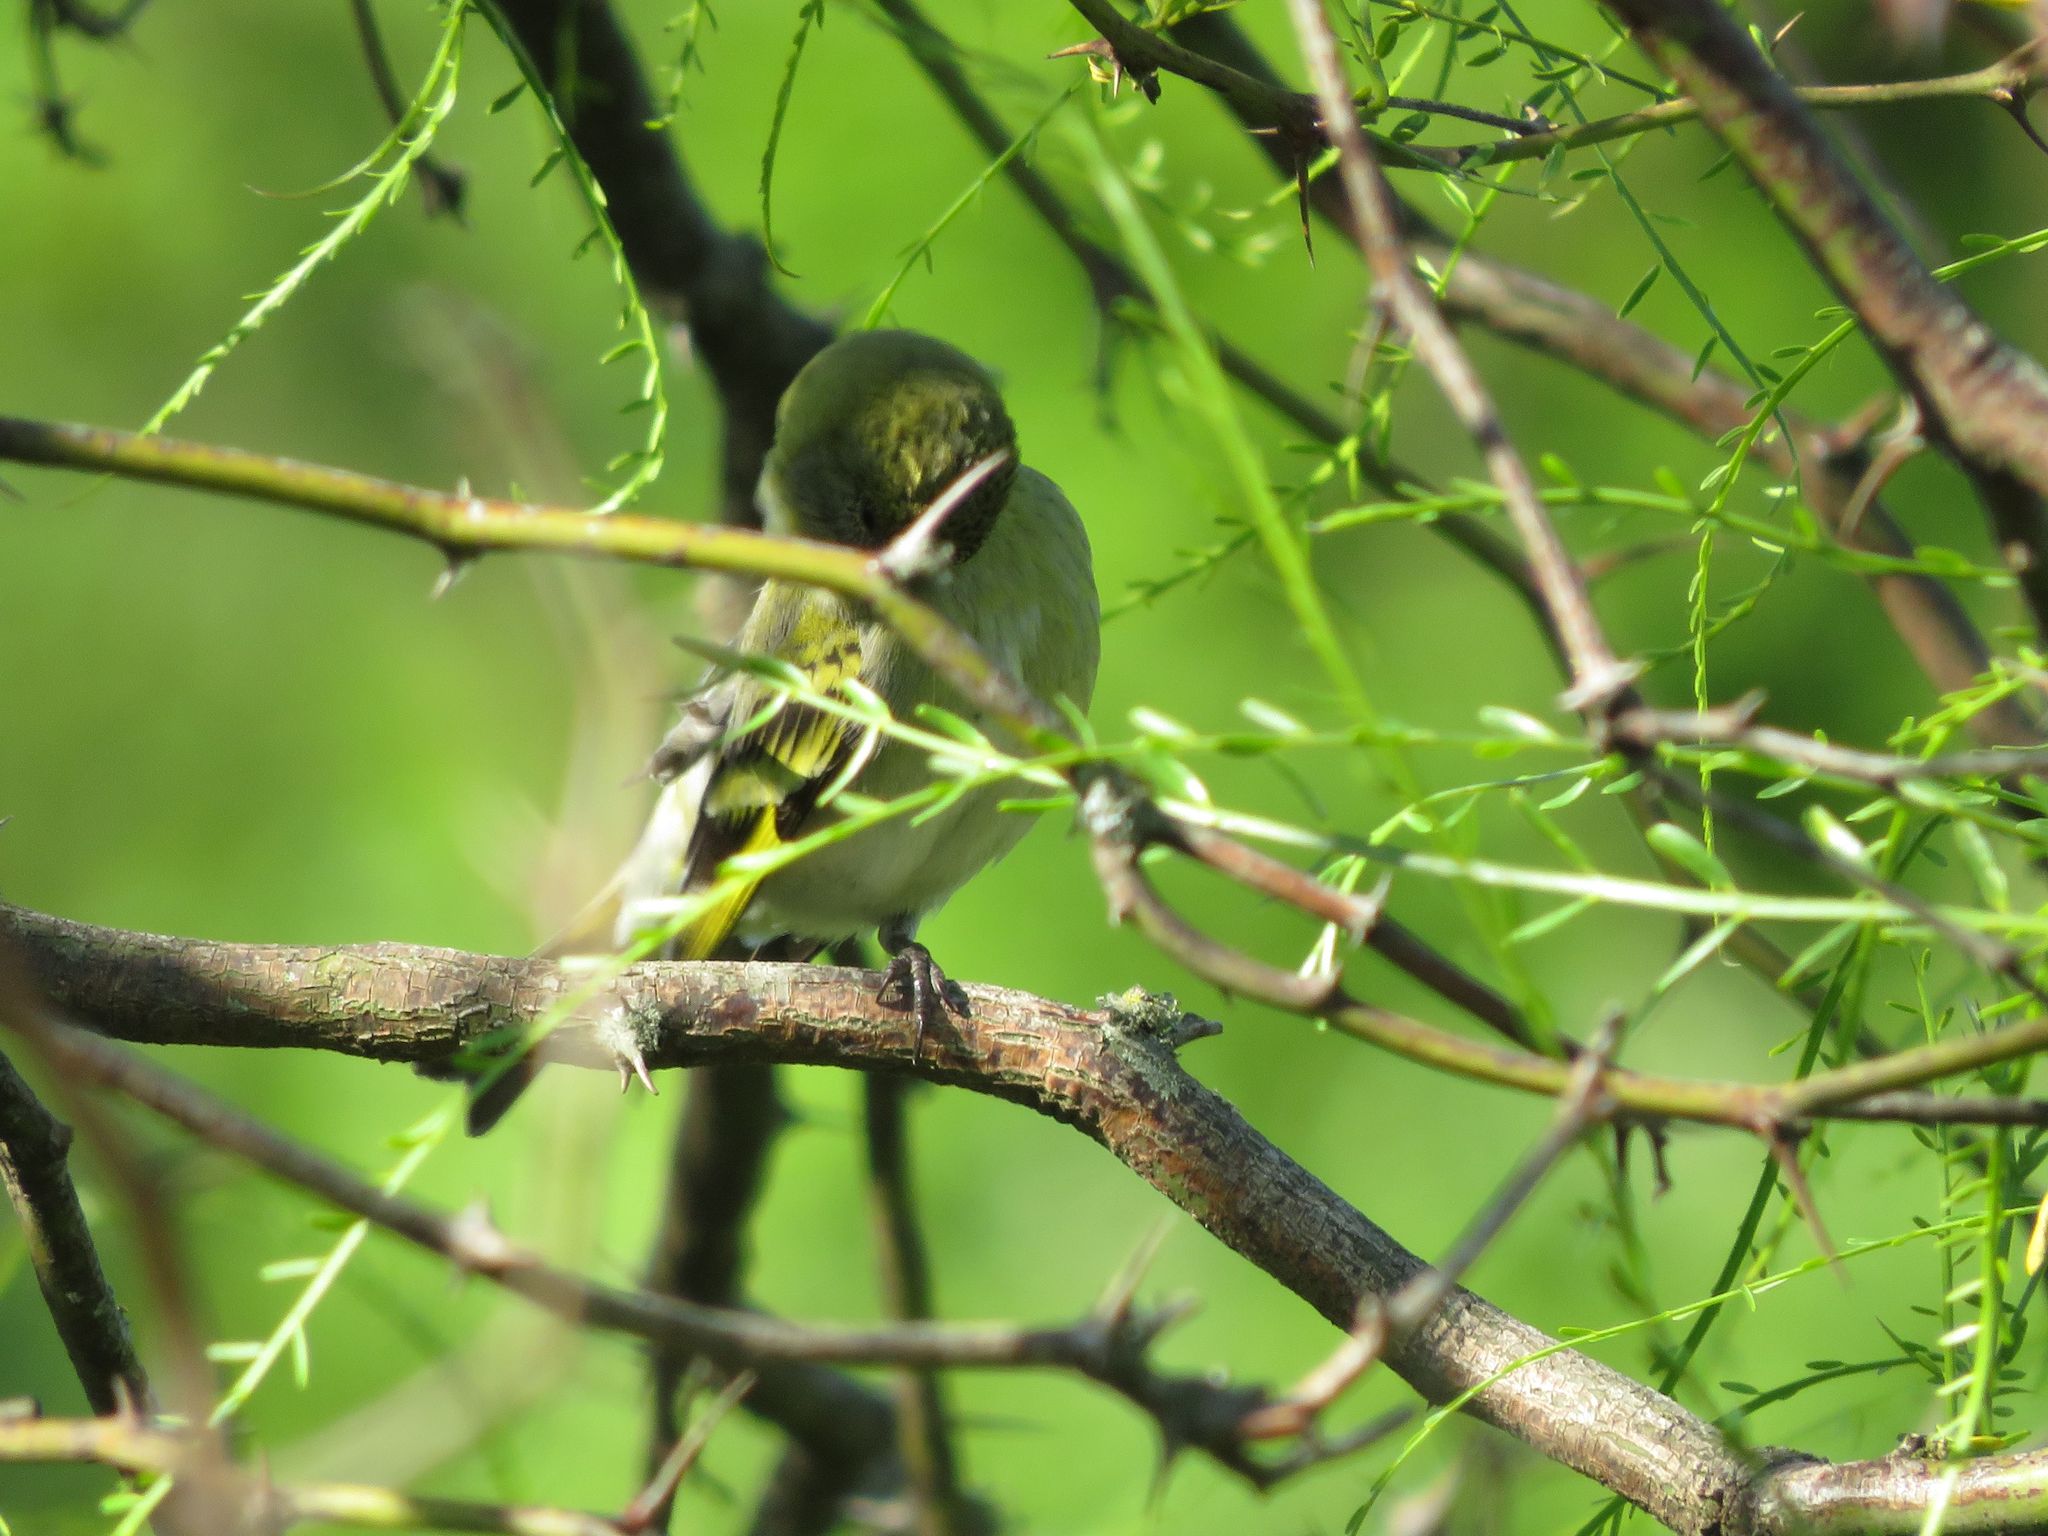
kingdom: Animalia
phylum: Chordata
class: Aves
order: Passeriformes
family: Fringillidae
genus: Spinus
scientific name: Spinus magellanicus
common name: Hooded siskin
